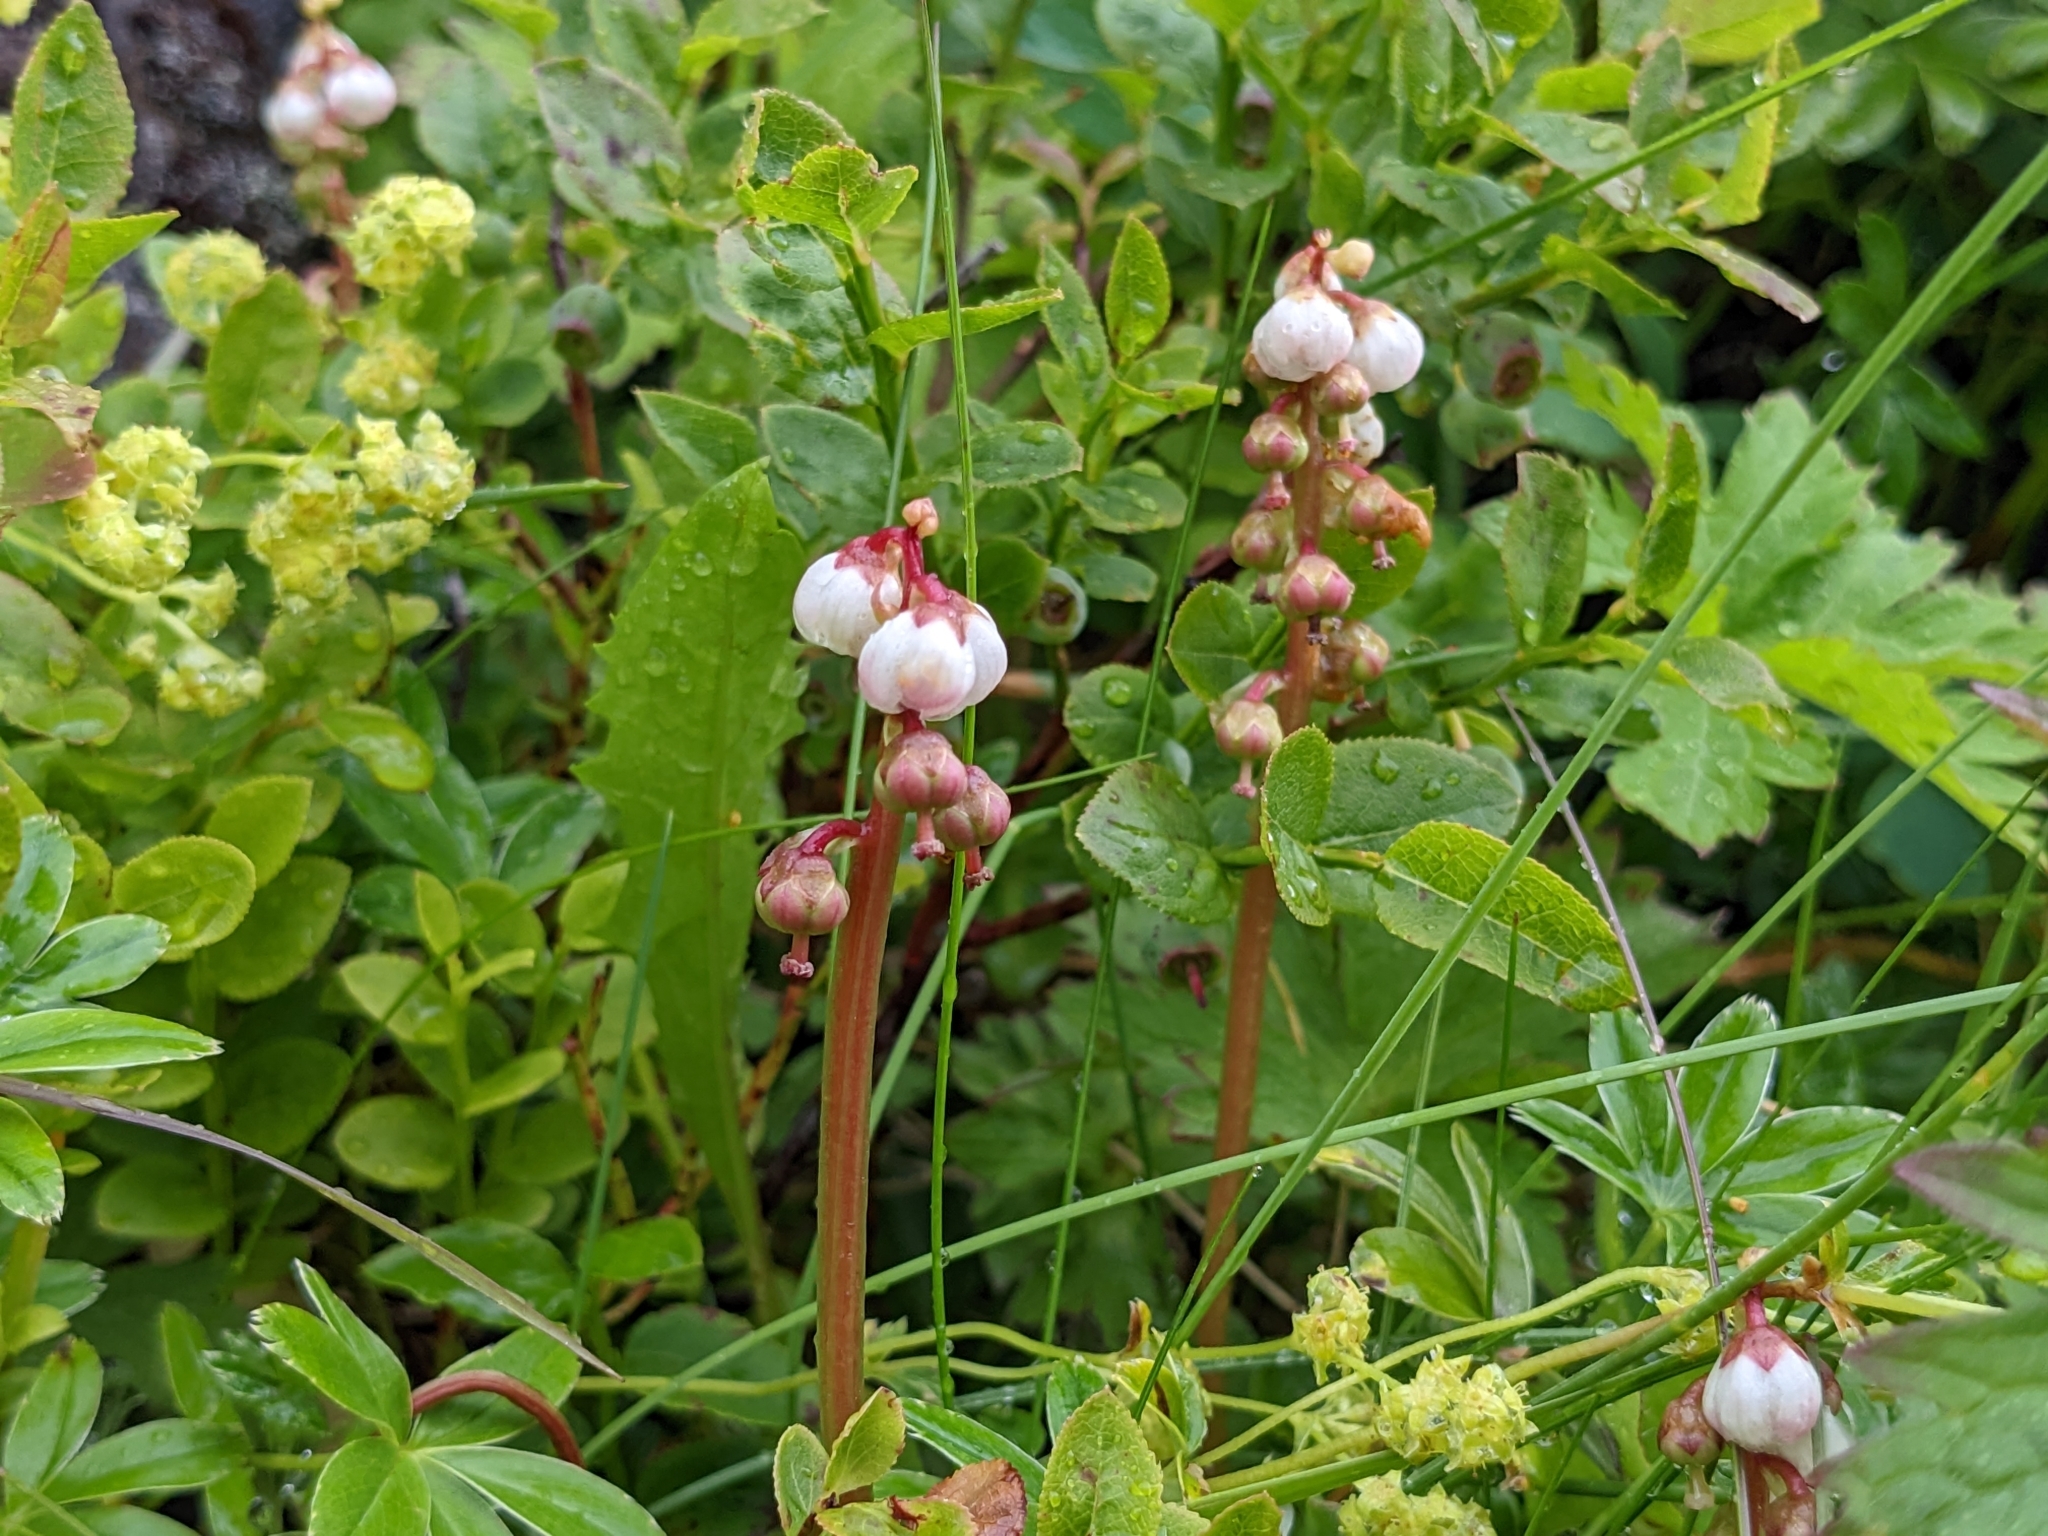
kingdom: Plantae
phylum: Tracheophyta
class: Magnoliopsida
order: Ericales
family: Ericaceae
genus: Pyrola
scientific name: Pyrola minor
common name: Common wintergreen
